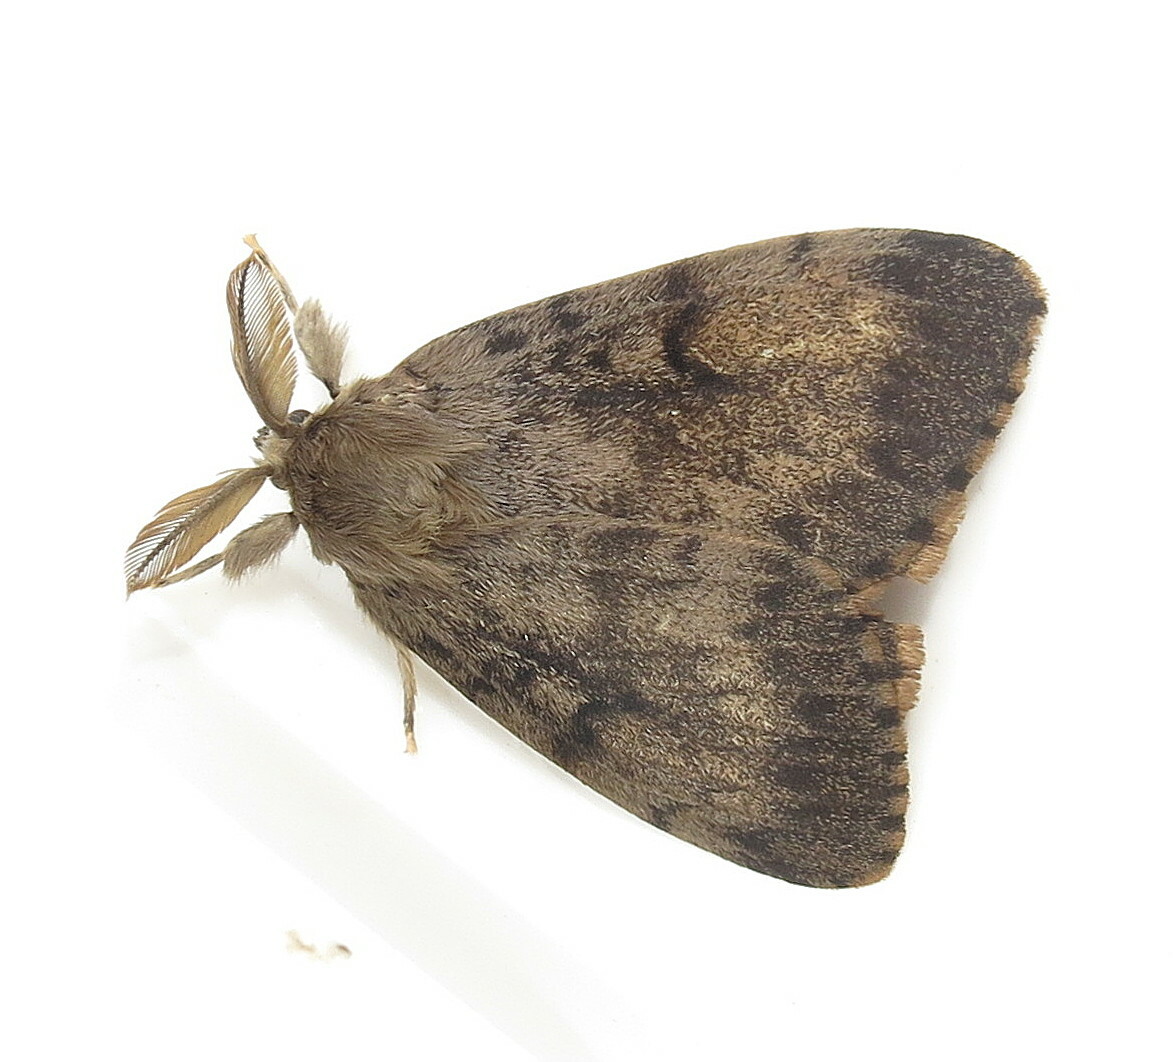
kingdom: Animalia
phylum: Arthropoda
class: Insecta
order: Lepidoptera
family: Erebidae
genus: Lymantria
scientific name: Lymantria dispar
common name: Gypsy moth
